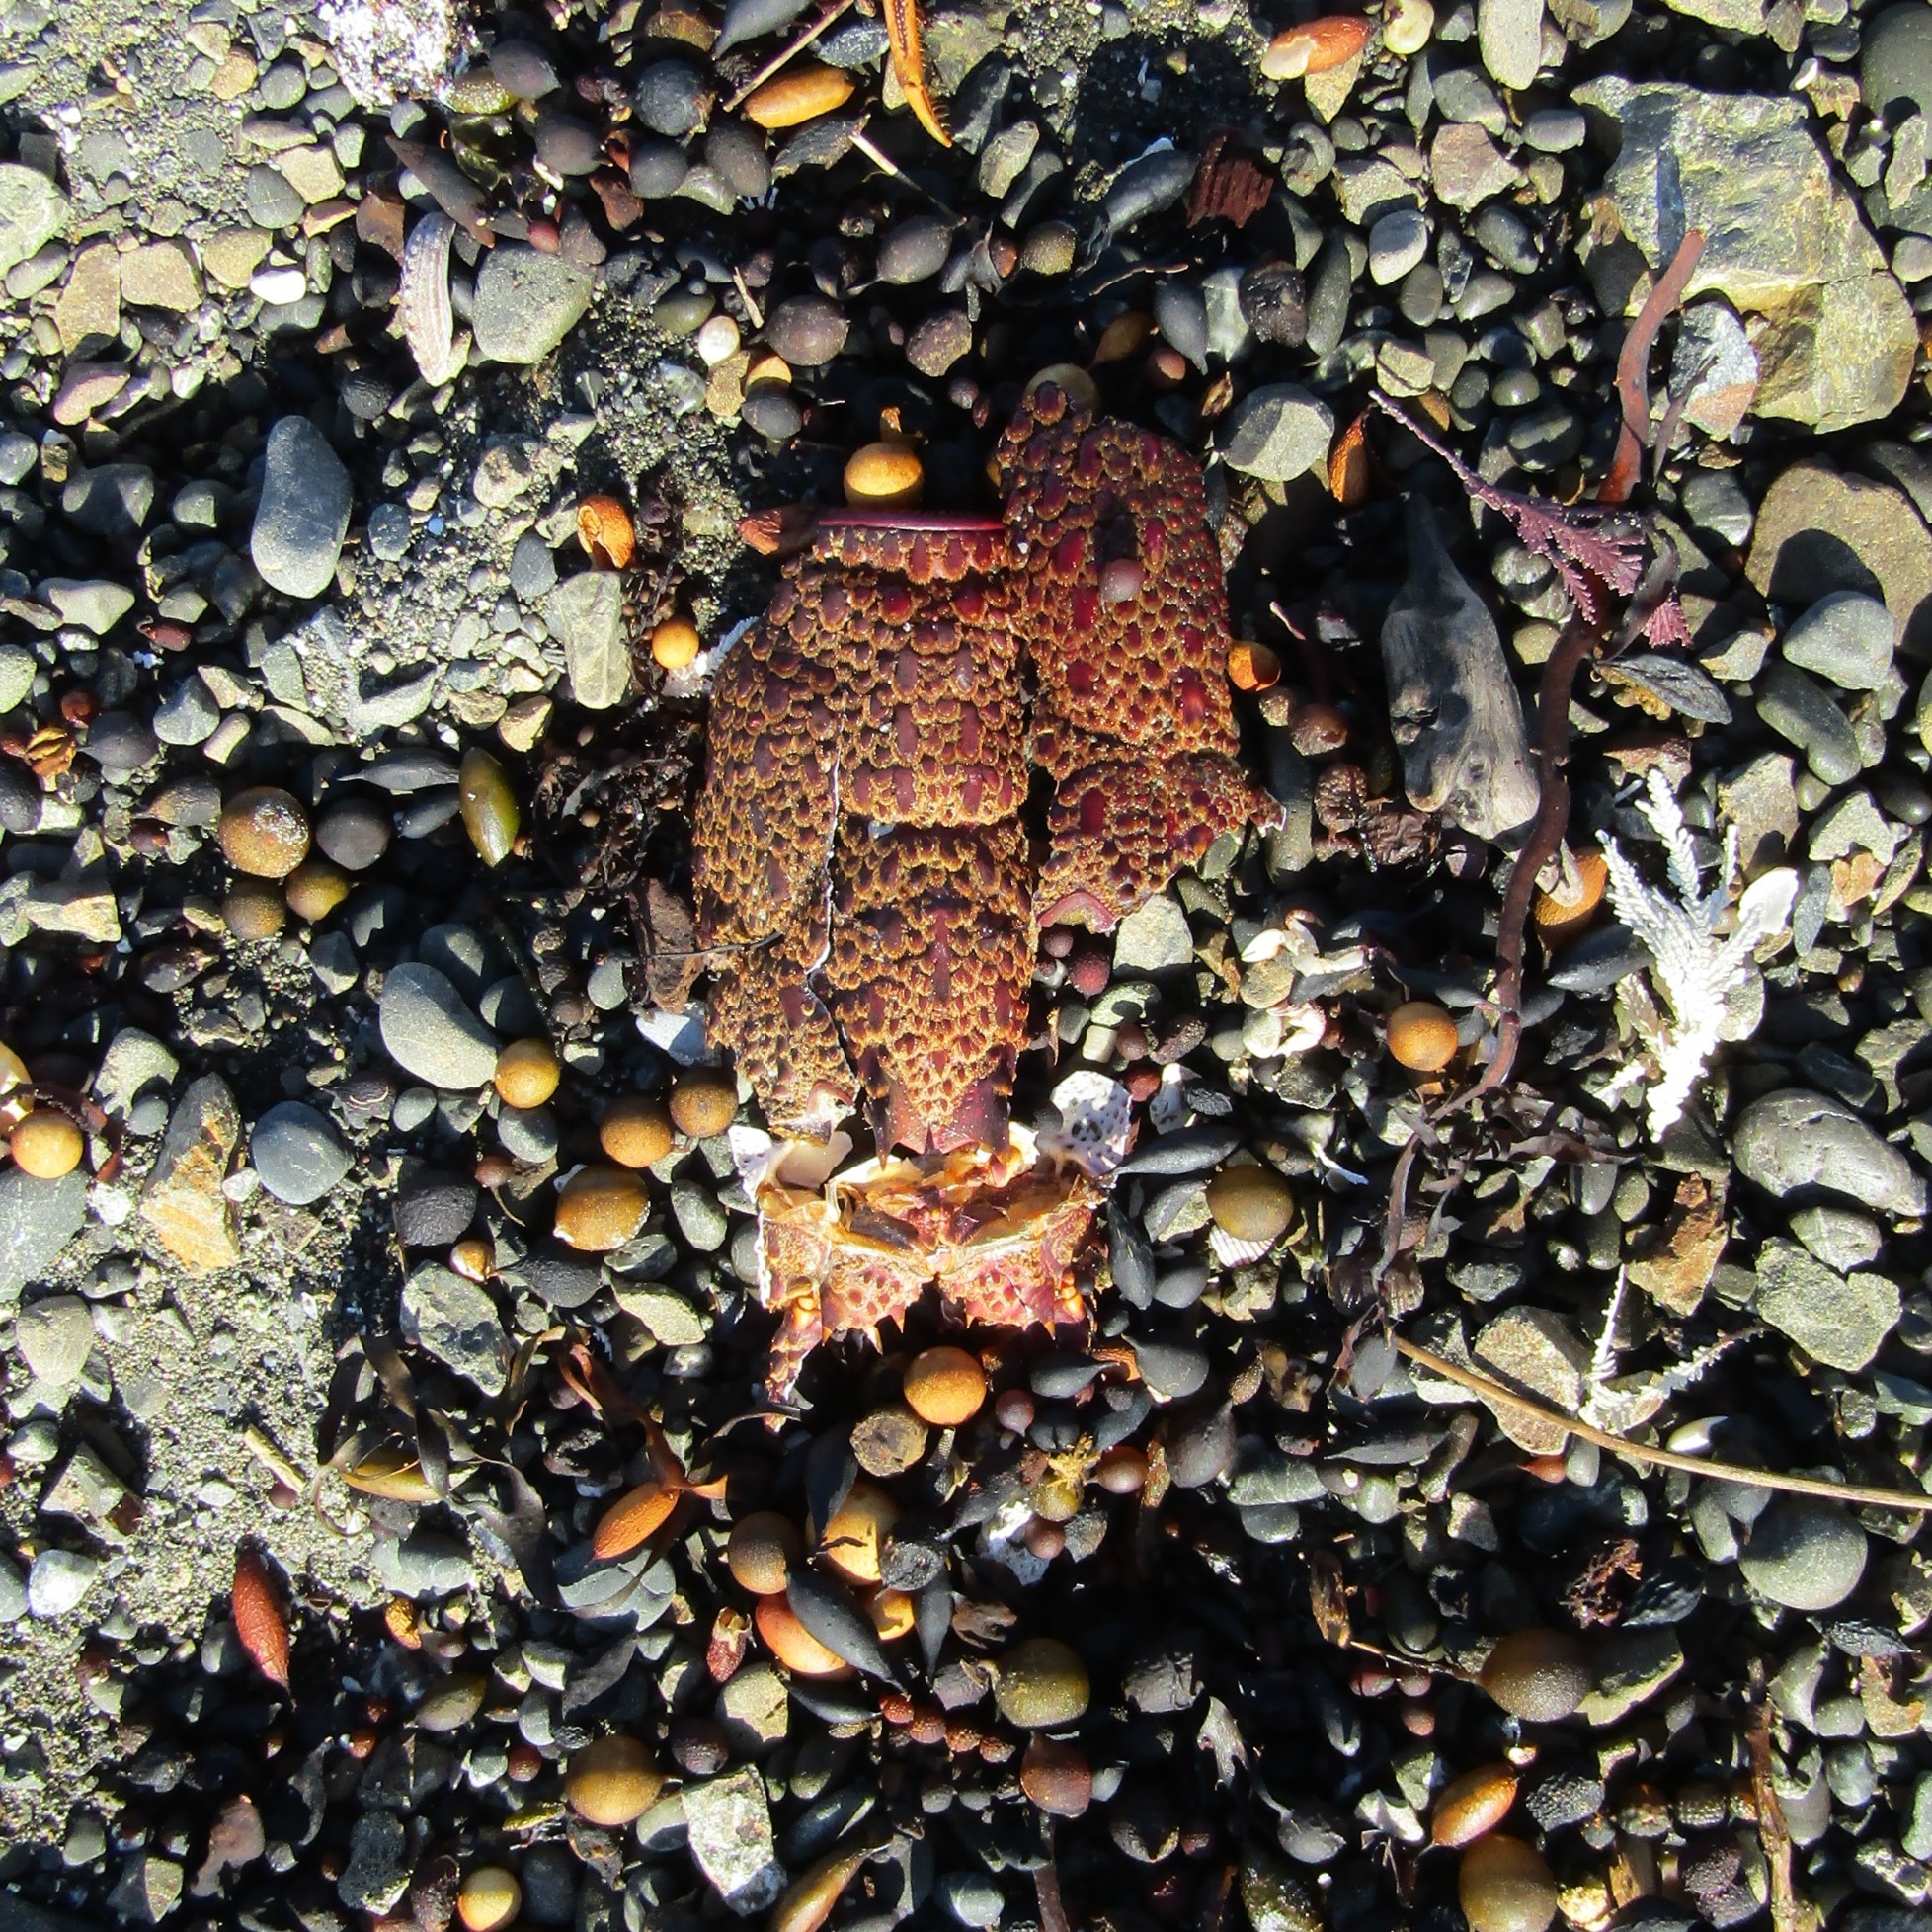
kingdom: Animalia
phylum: Arthropoda
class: Malacostraca
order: Decapoda
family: Palinuridae
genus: Jasus
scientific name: Jasus edwardsii
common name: Red rock lobster
